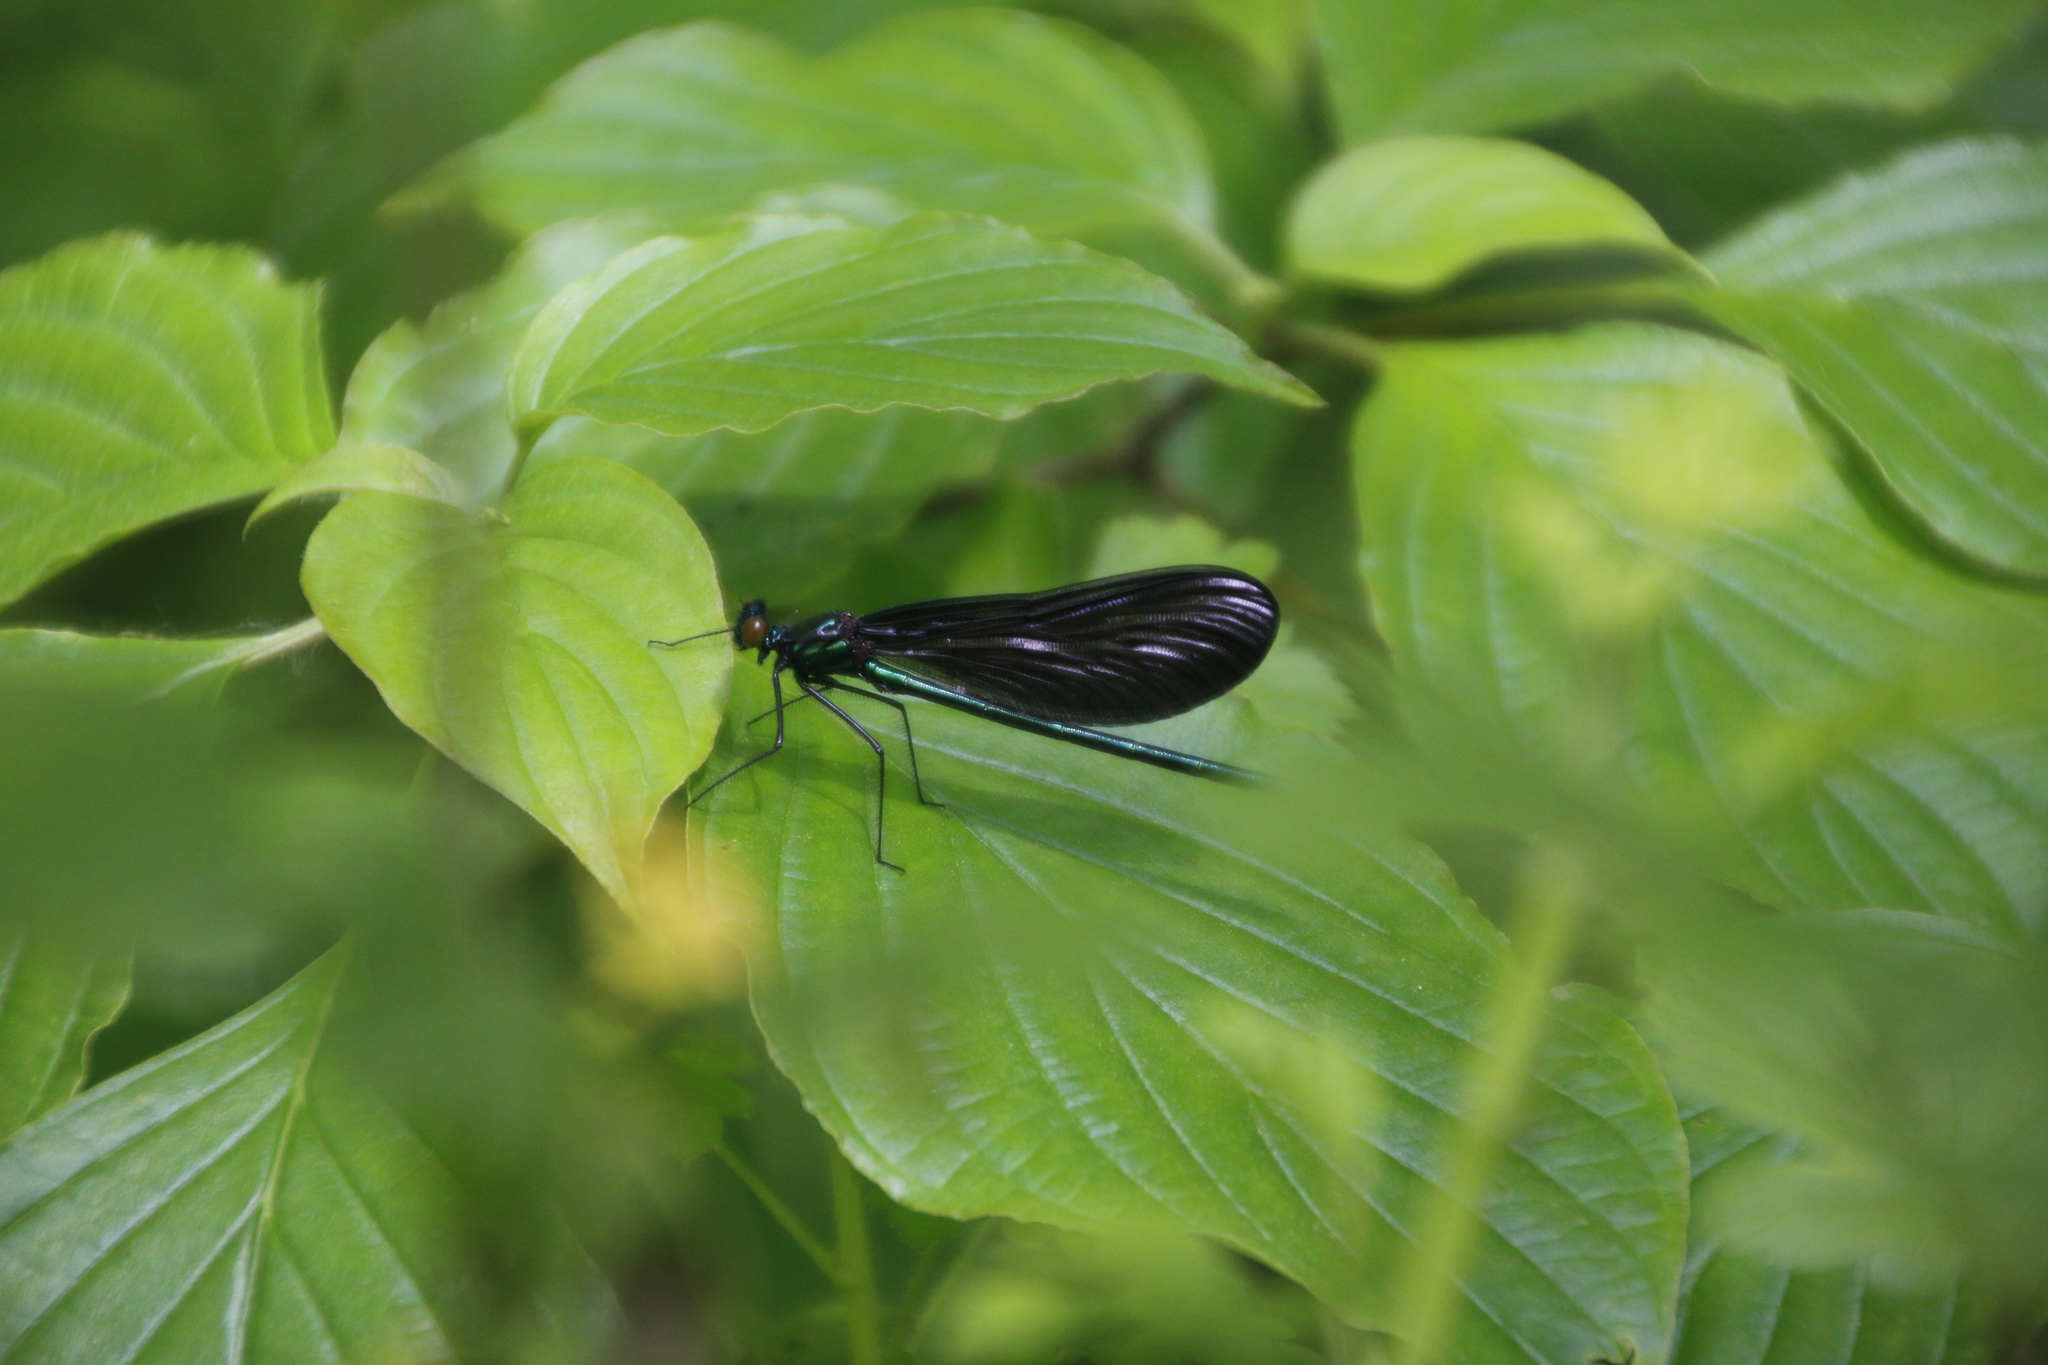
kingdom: Animalia
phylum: Arthropoda
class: Insecta
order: Odonata
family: Calopterygidae
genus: Calopteryx
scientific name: Calopteryx maculata
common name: Ebony jewelwing
